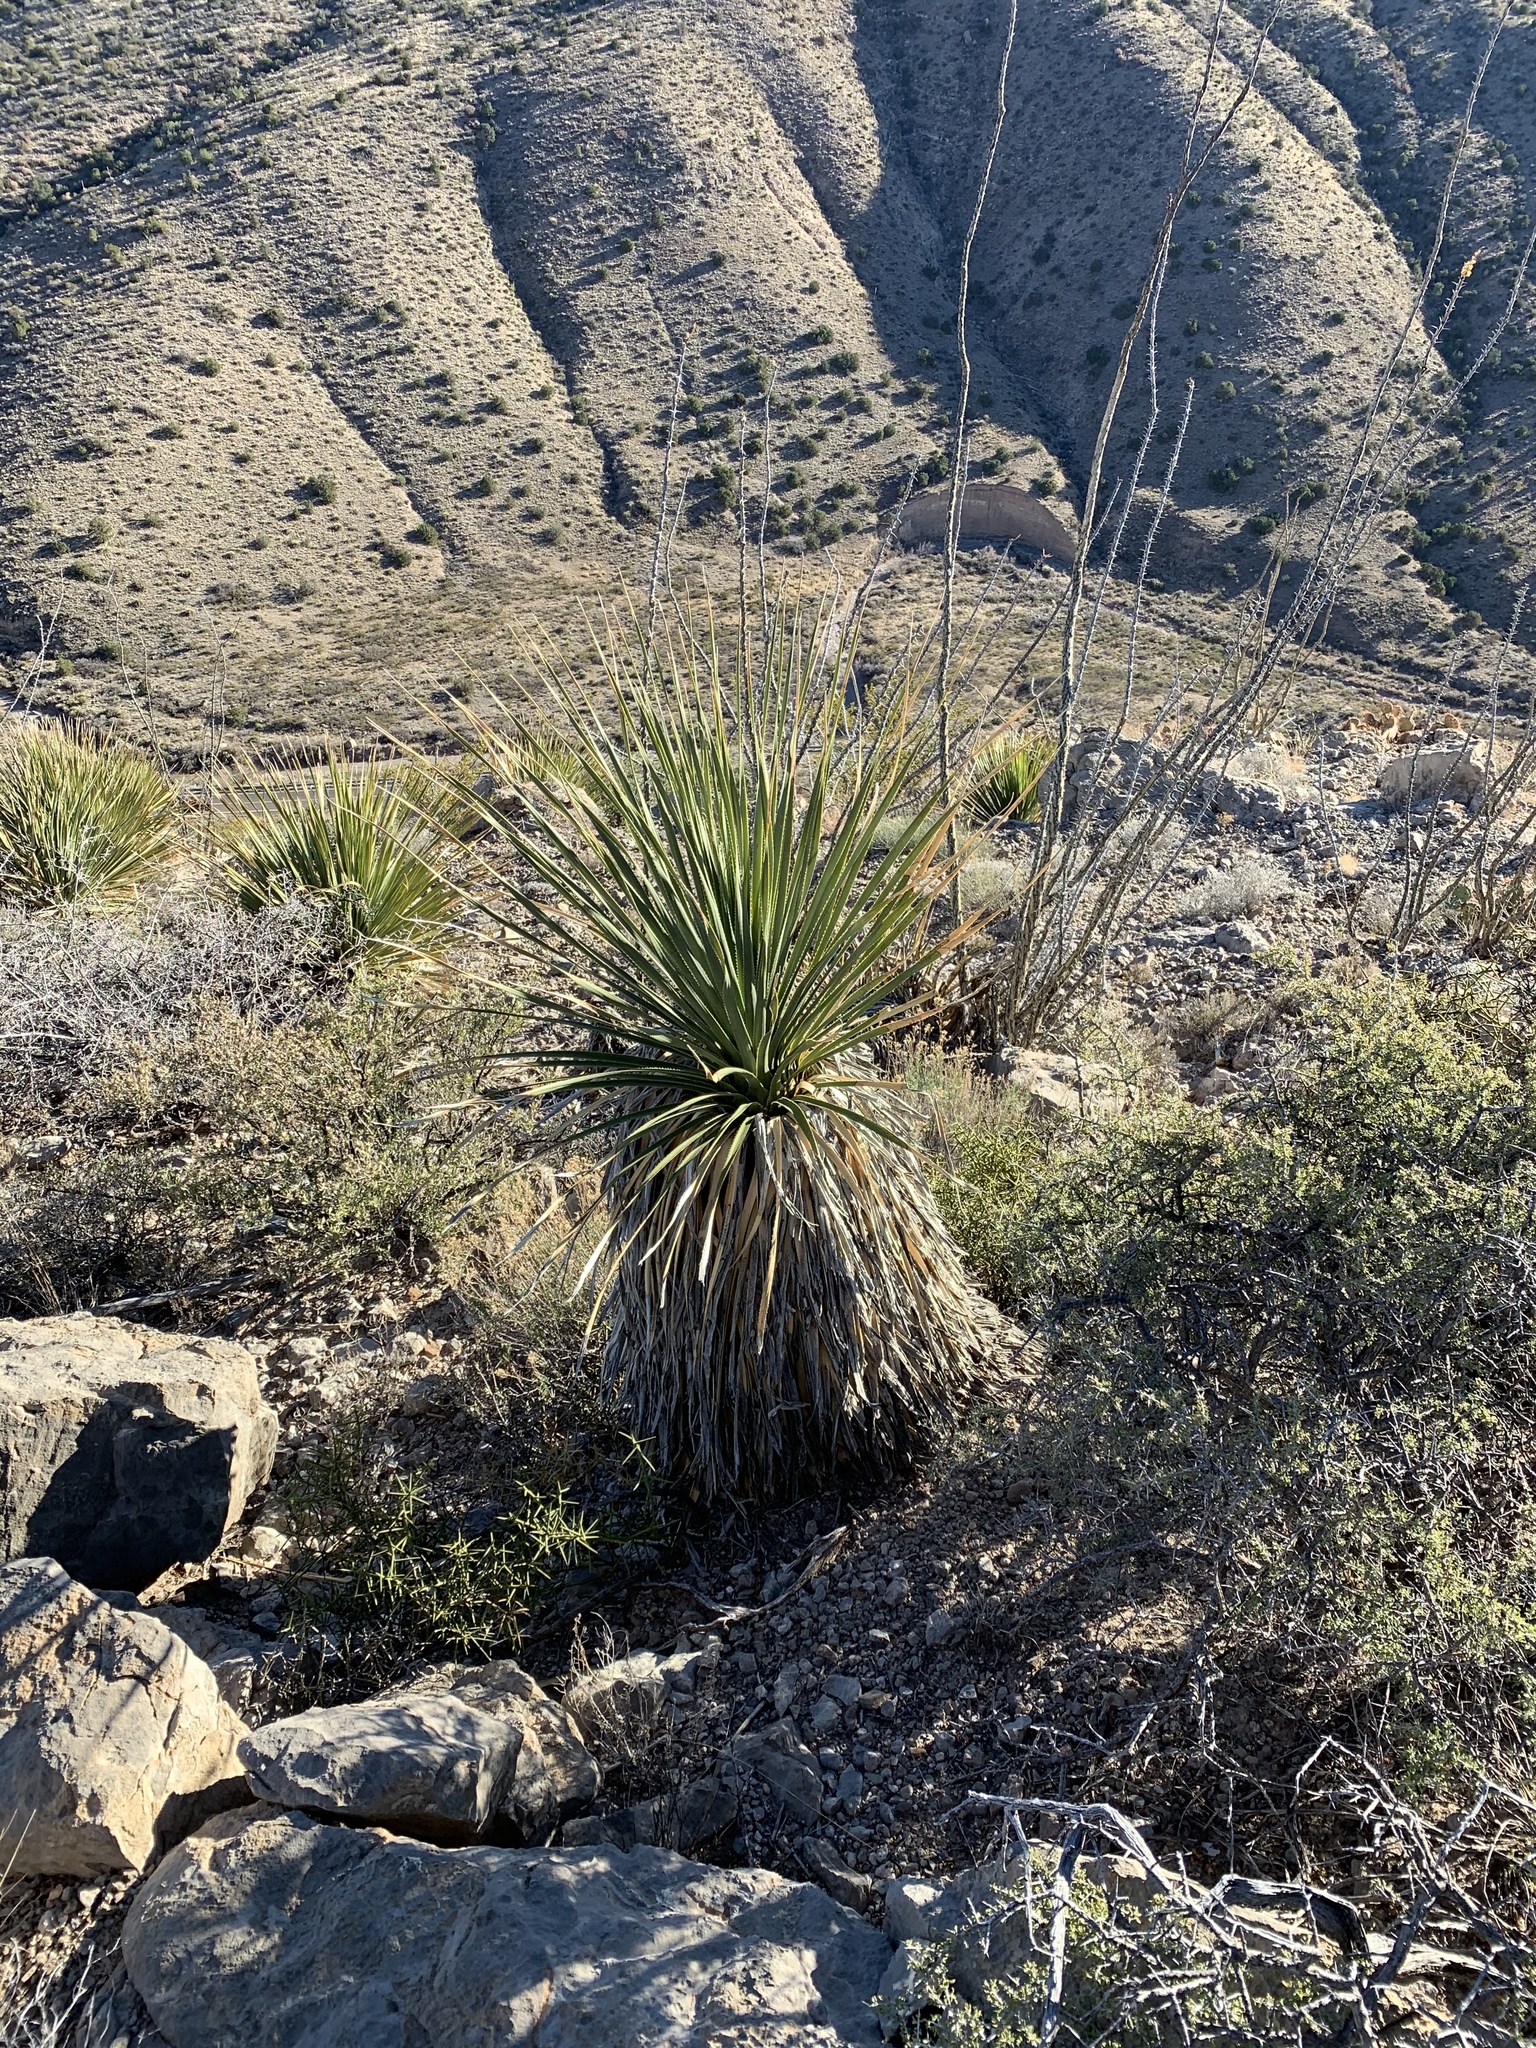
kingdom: Plantae
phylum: Tracheophyta
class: Liliopsida
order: Asparagales
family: Asparagaceae
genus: Dasylirion
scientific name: Dasylirion wheeleri
